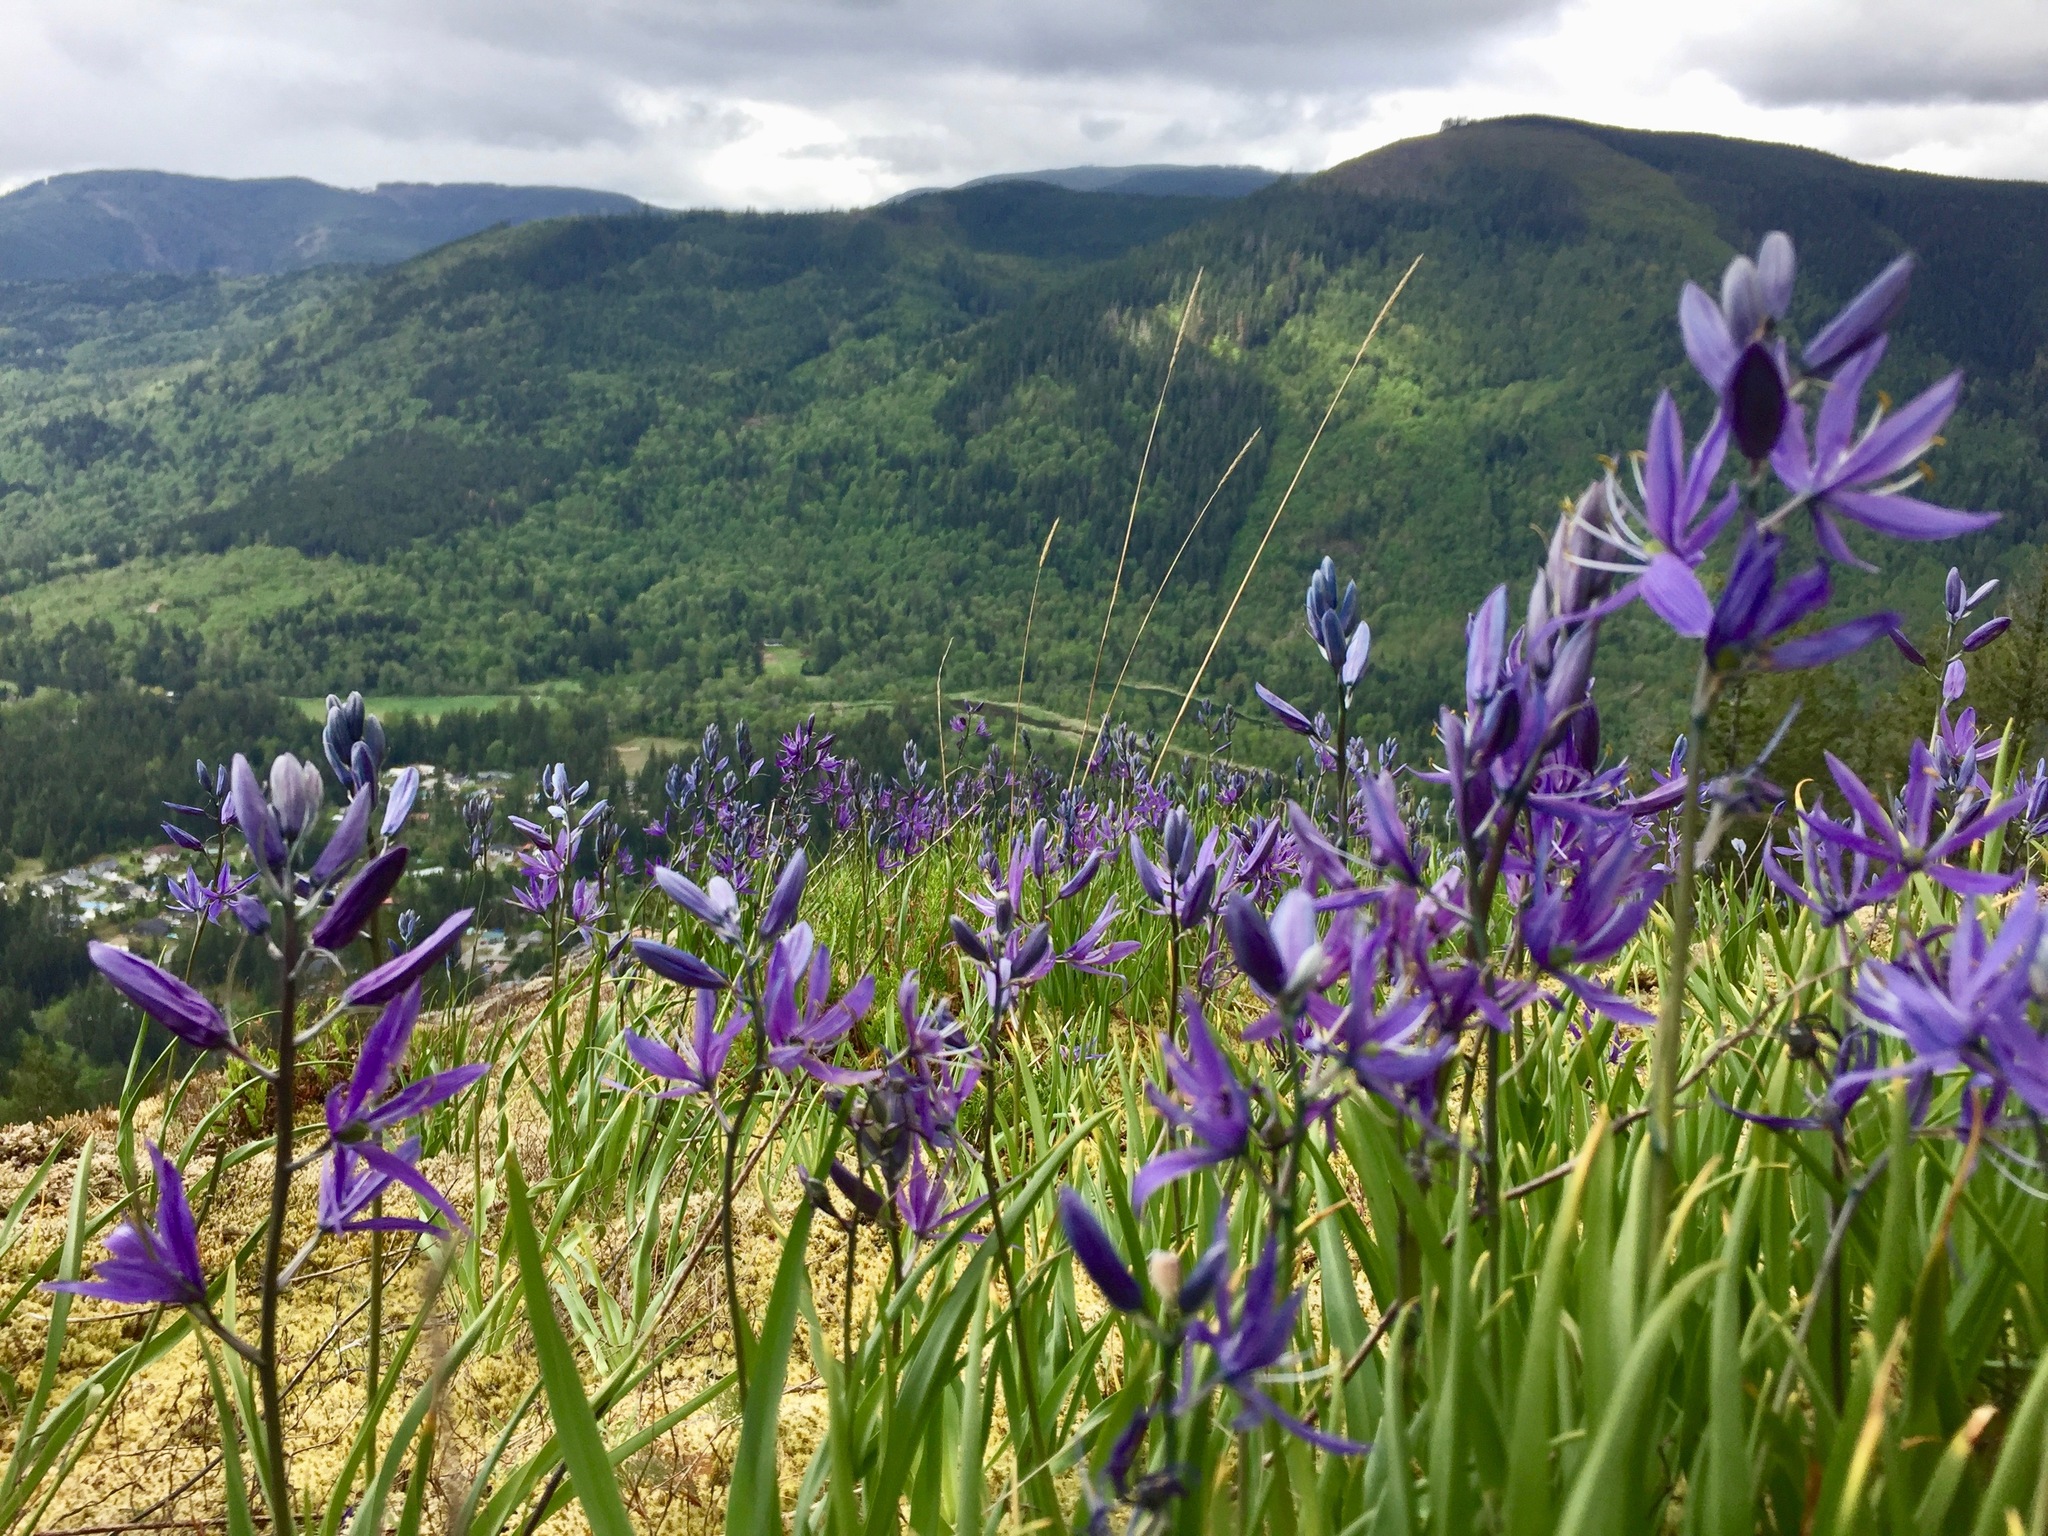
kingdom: Plantae
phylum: Tracheophyta
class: Liliopsida
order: Asparagales
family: Asparagaceae
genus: Camassia
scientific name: Camassia quamash
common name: Common camas
